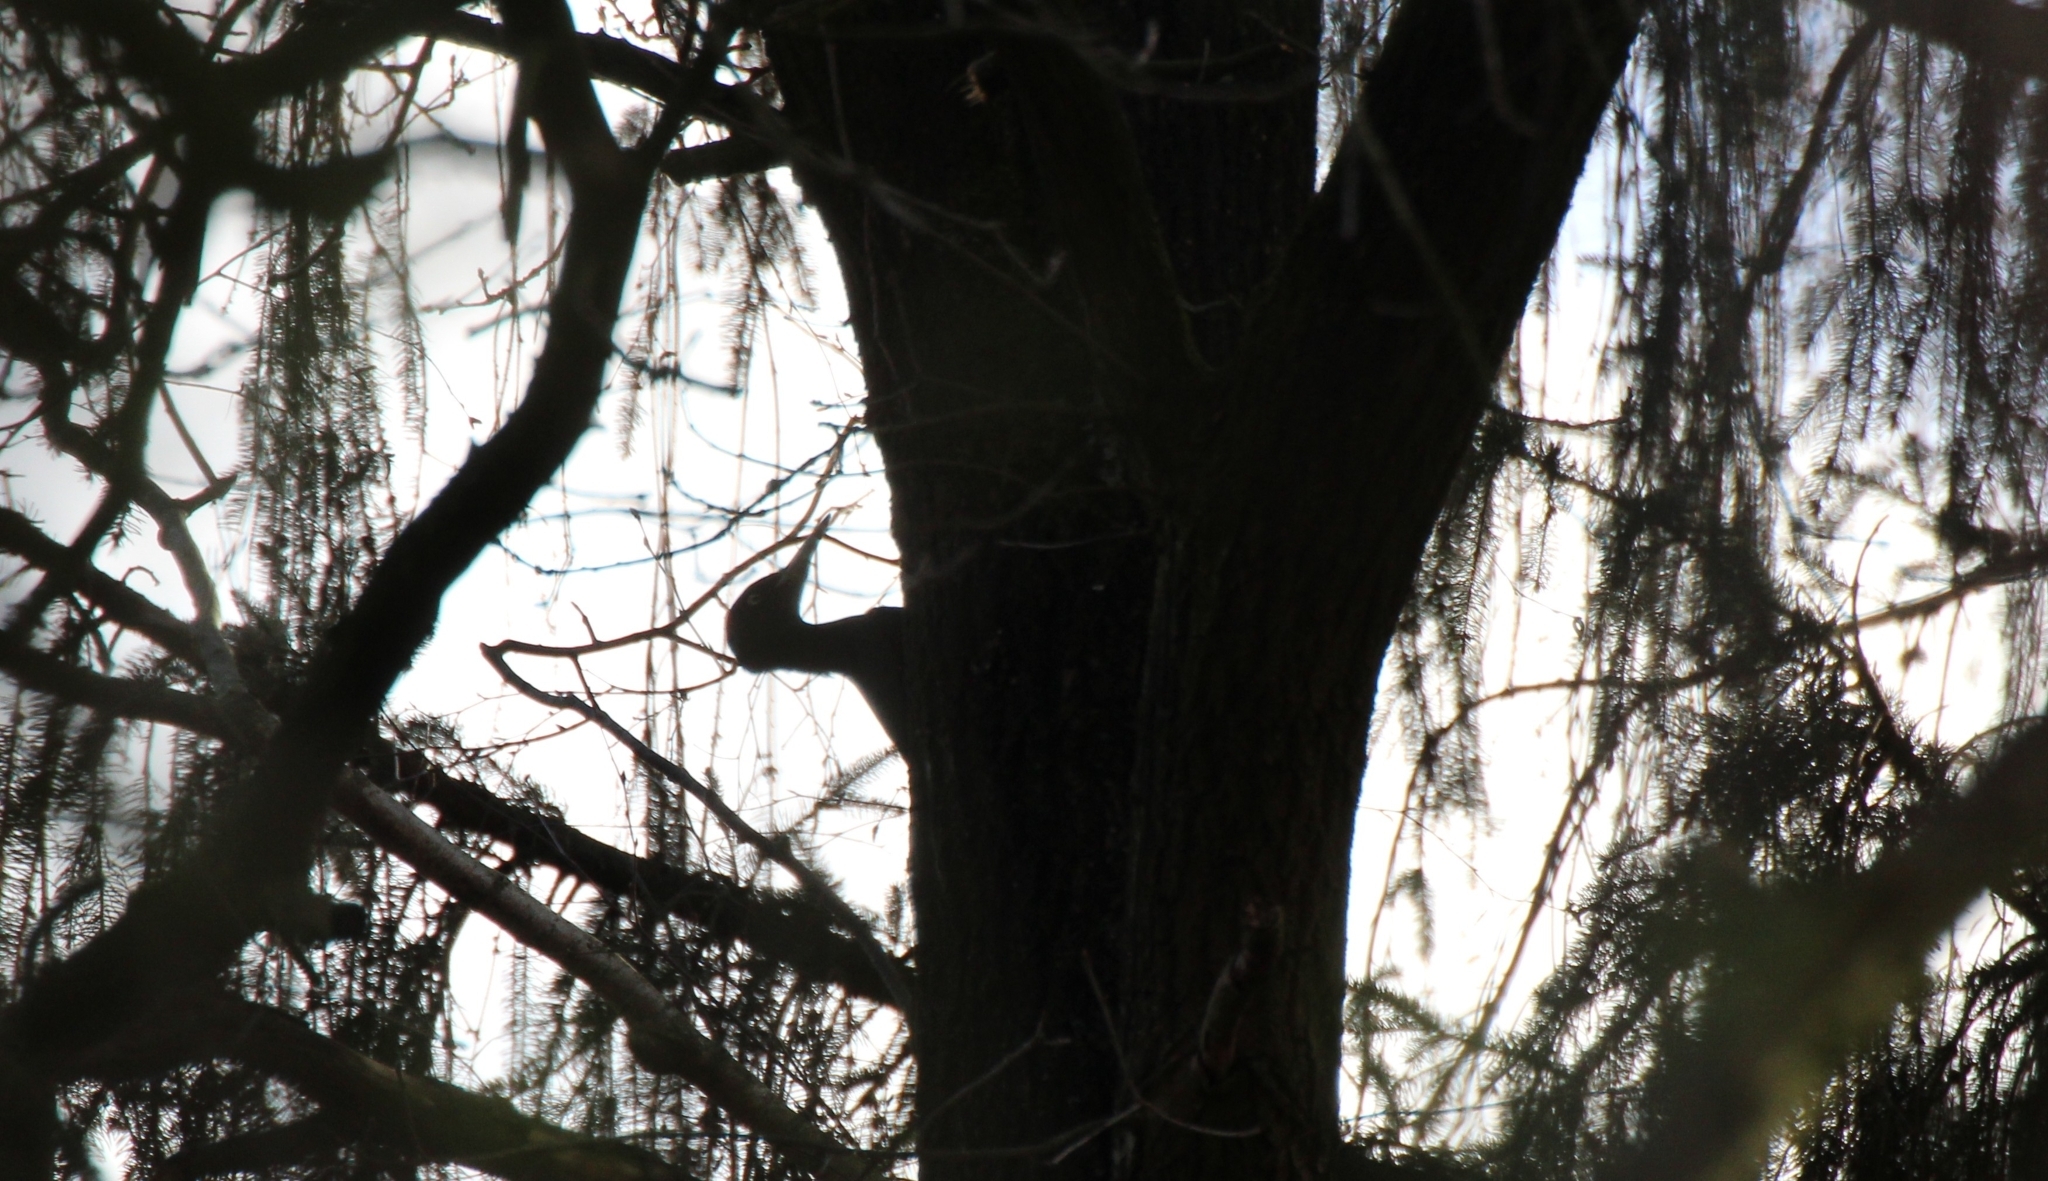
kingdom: Animalia
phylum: Chordata
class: Aves
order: Piciformes
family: Picidae
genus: Dryocopus
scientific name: Dryocopus martius
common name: Black woodpecker
